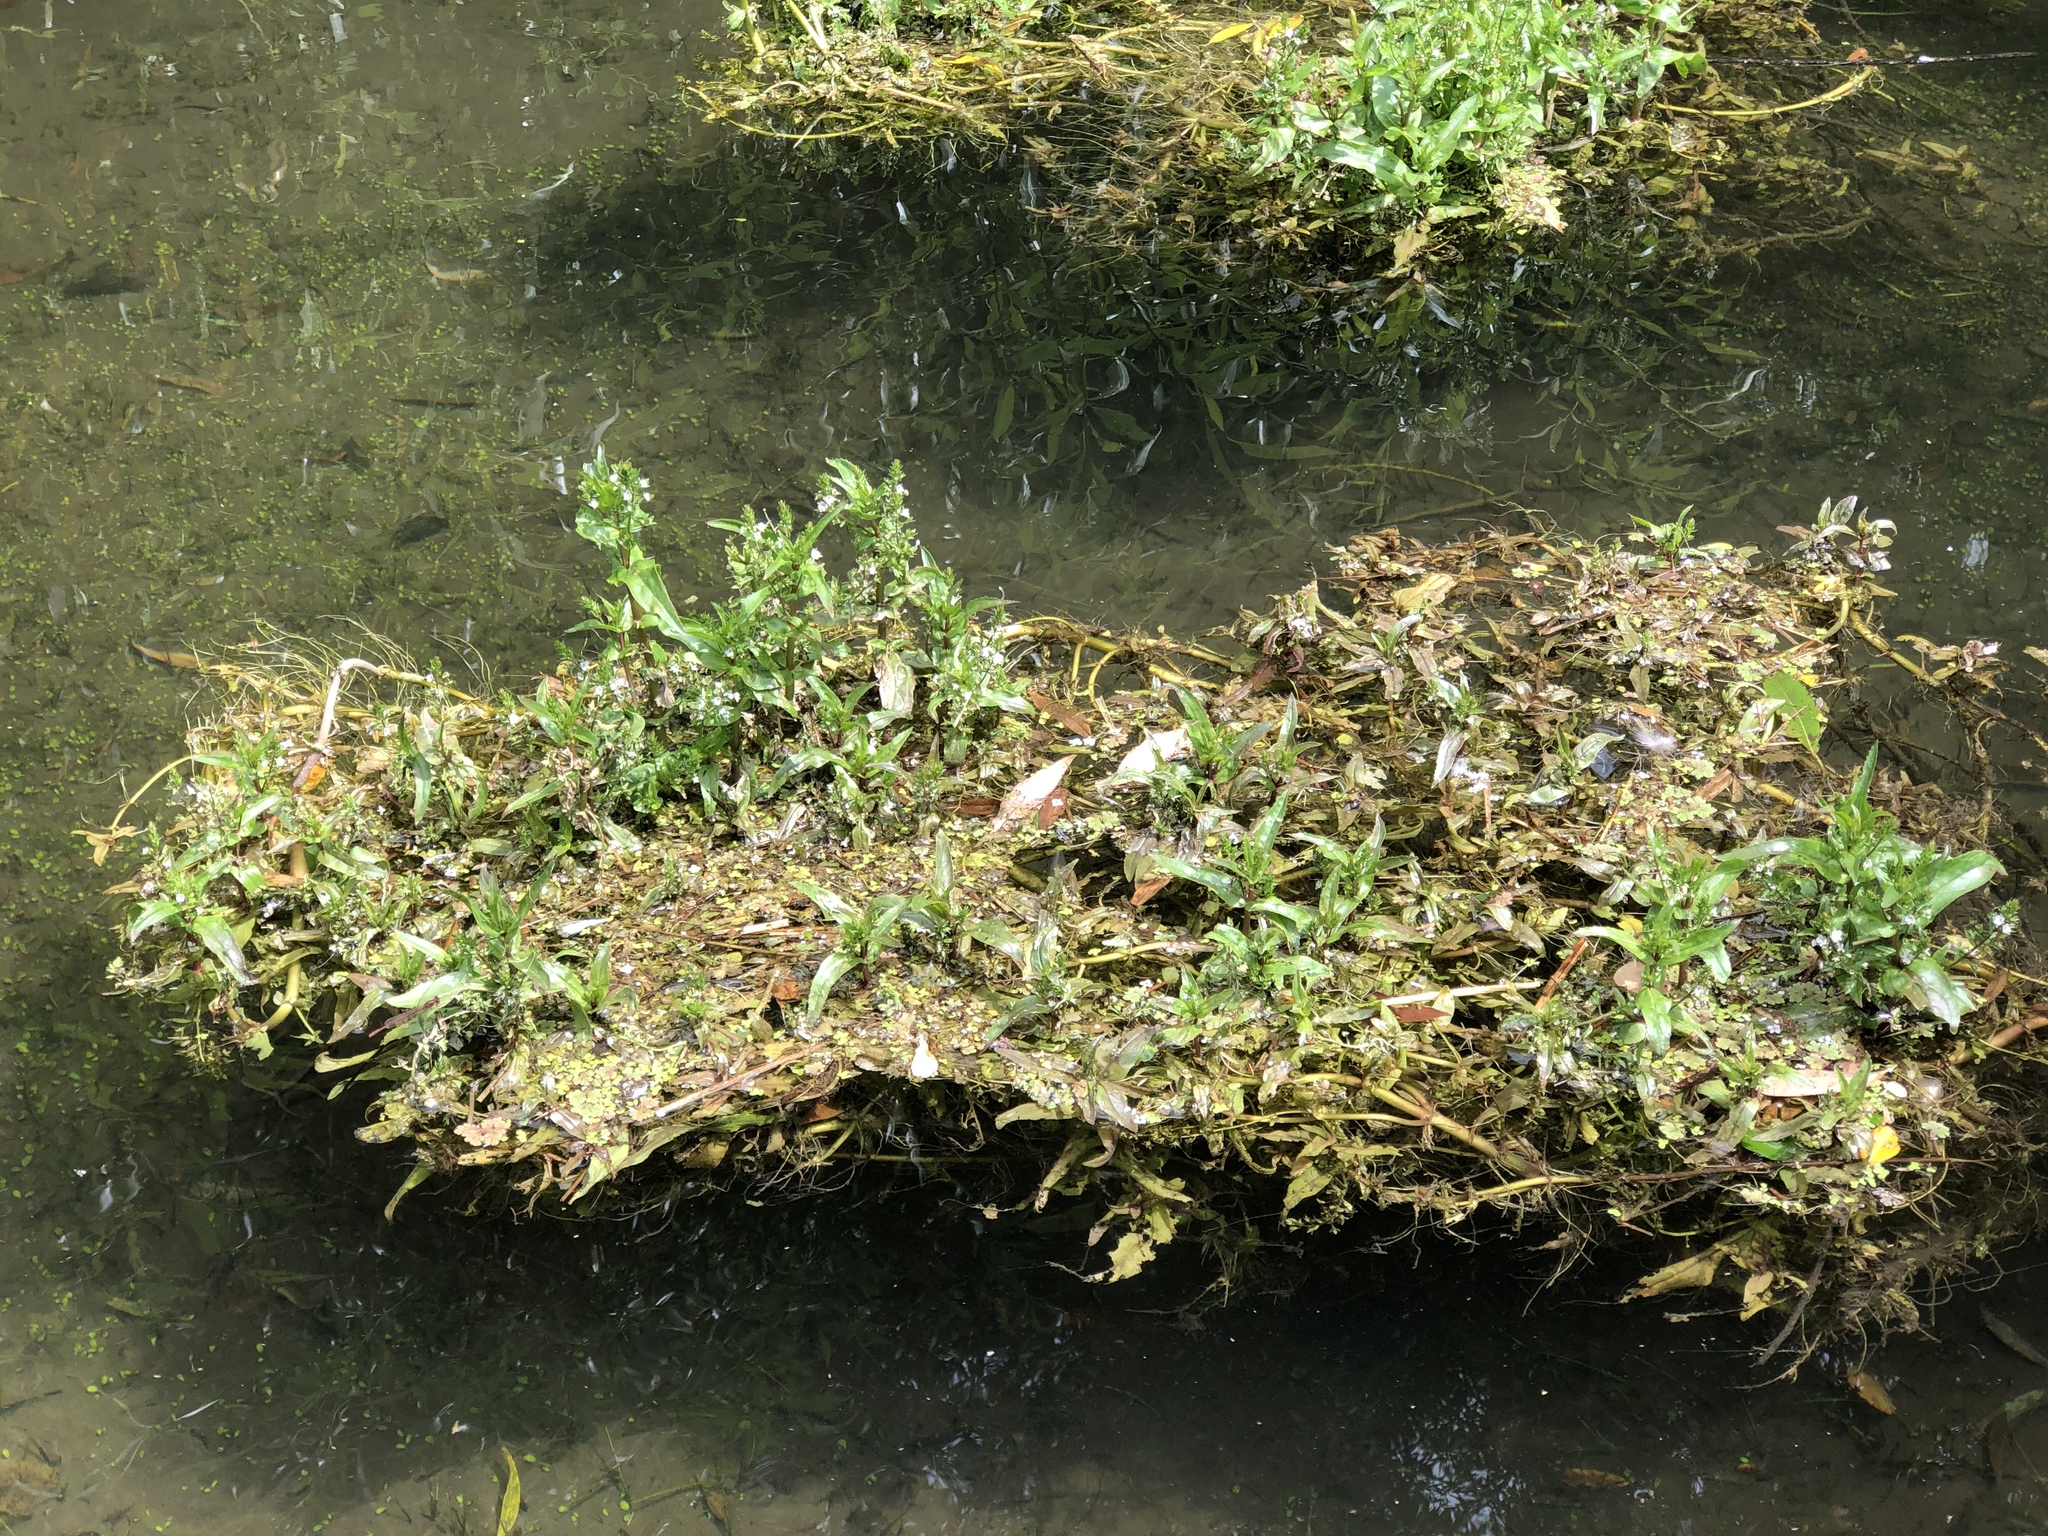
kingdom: Plantae
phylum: Tracheophyta
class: Magnoliopsida
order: Lamiales
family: Plantaginaceae
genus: Veronica
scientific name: Veronica anagallis-aquatica
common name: Water speedwell
